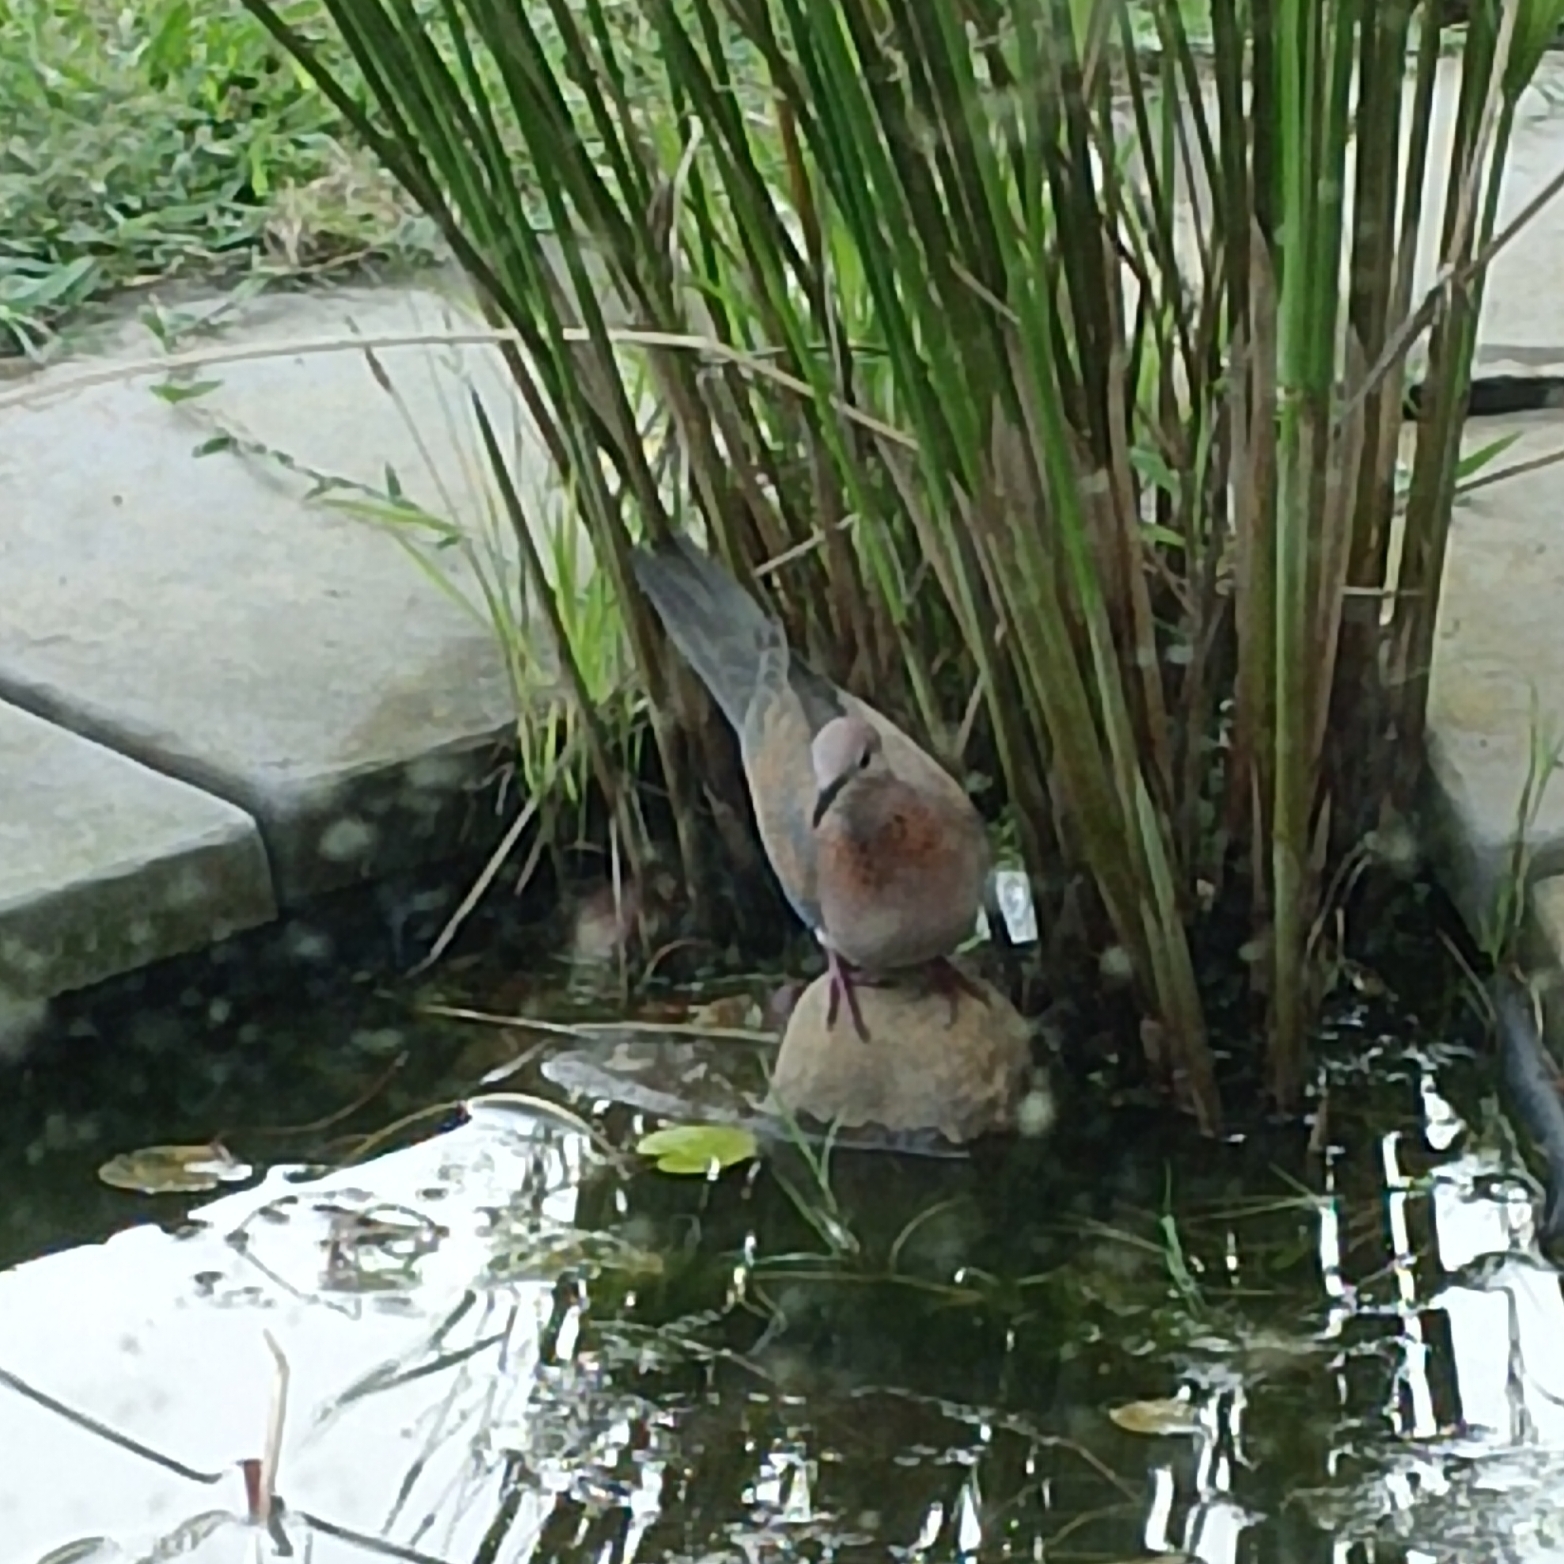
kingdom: Animalia
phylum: Chordata
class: Aves
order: Columbiformes
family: Columbidae
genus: Spilopelia
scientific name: Spilopelia senegalensis
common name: Laughing dove
